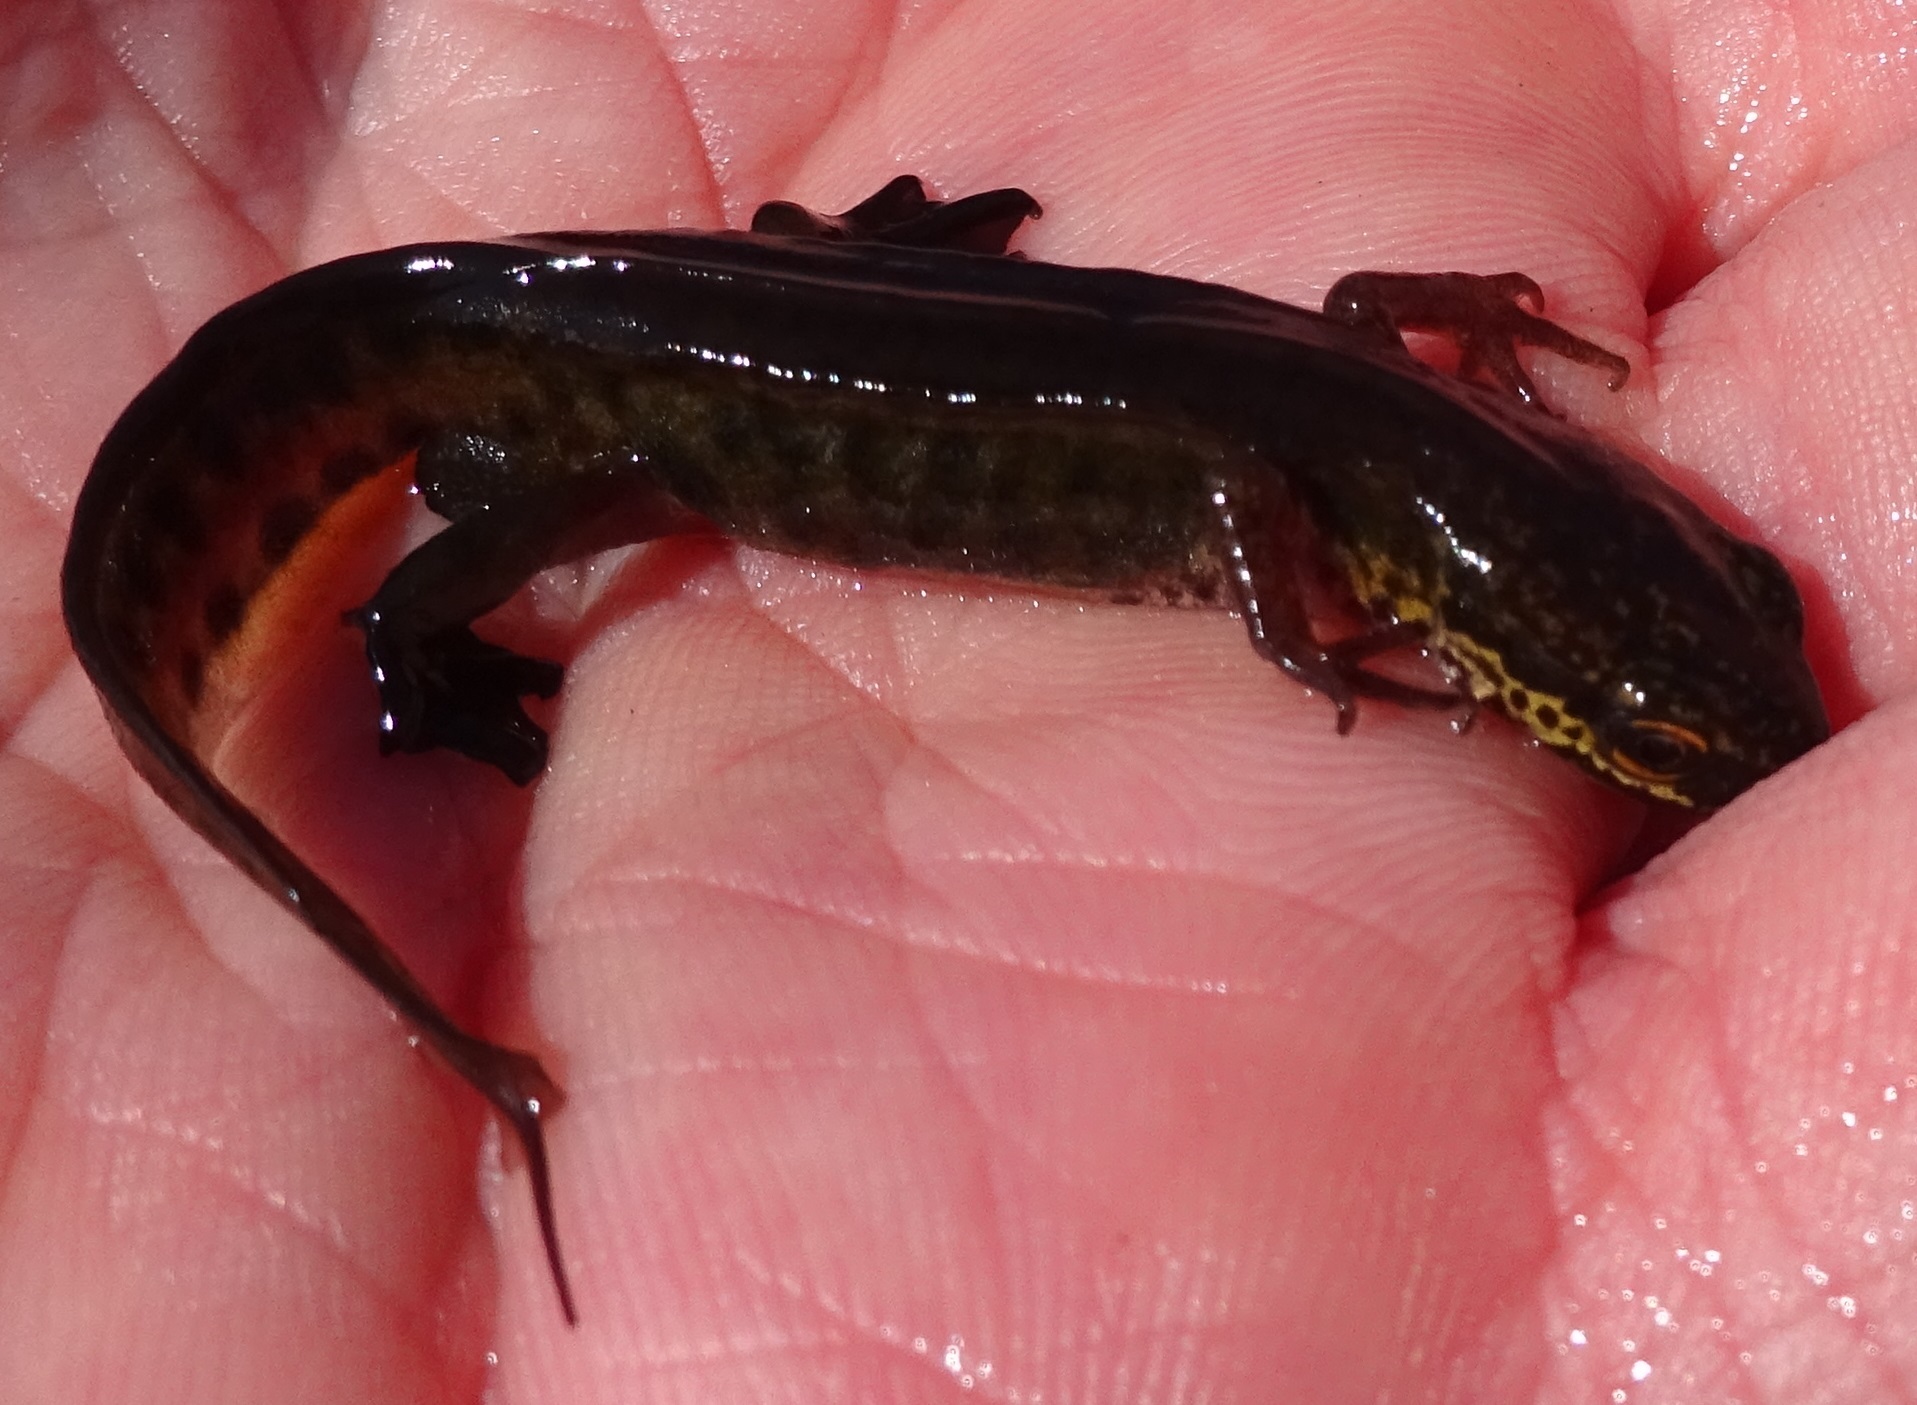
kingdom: Animalia
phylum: Chordata
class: Amphibia
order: Caudata
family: Salamandridae
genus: Lissotriton
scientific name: Lissotriton helveticus
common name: Palmate newt
